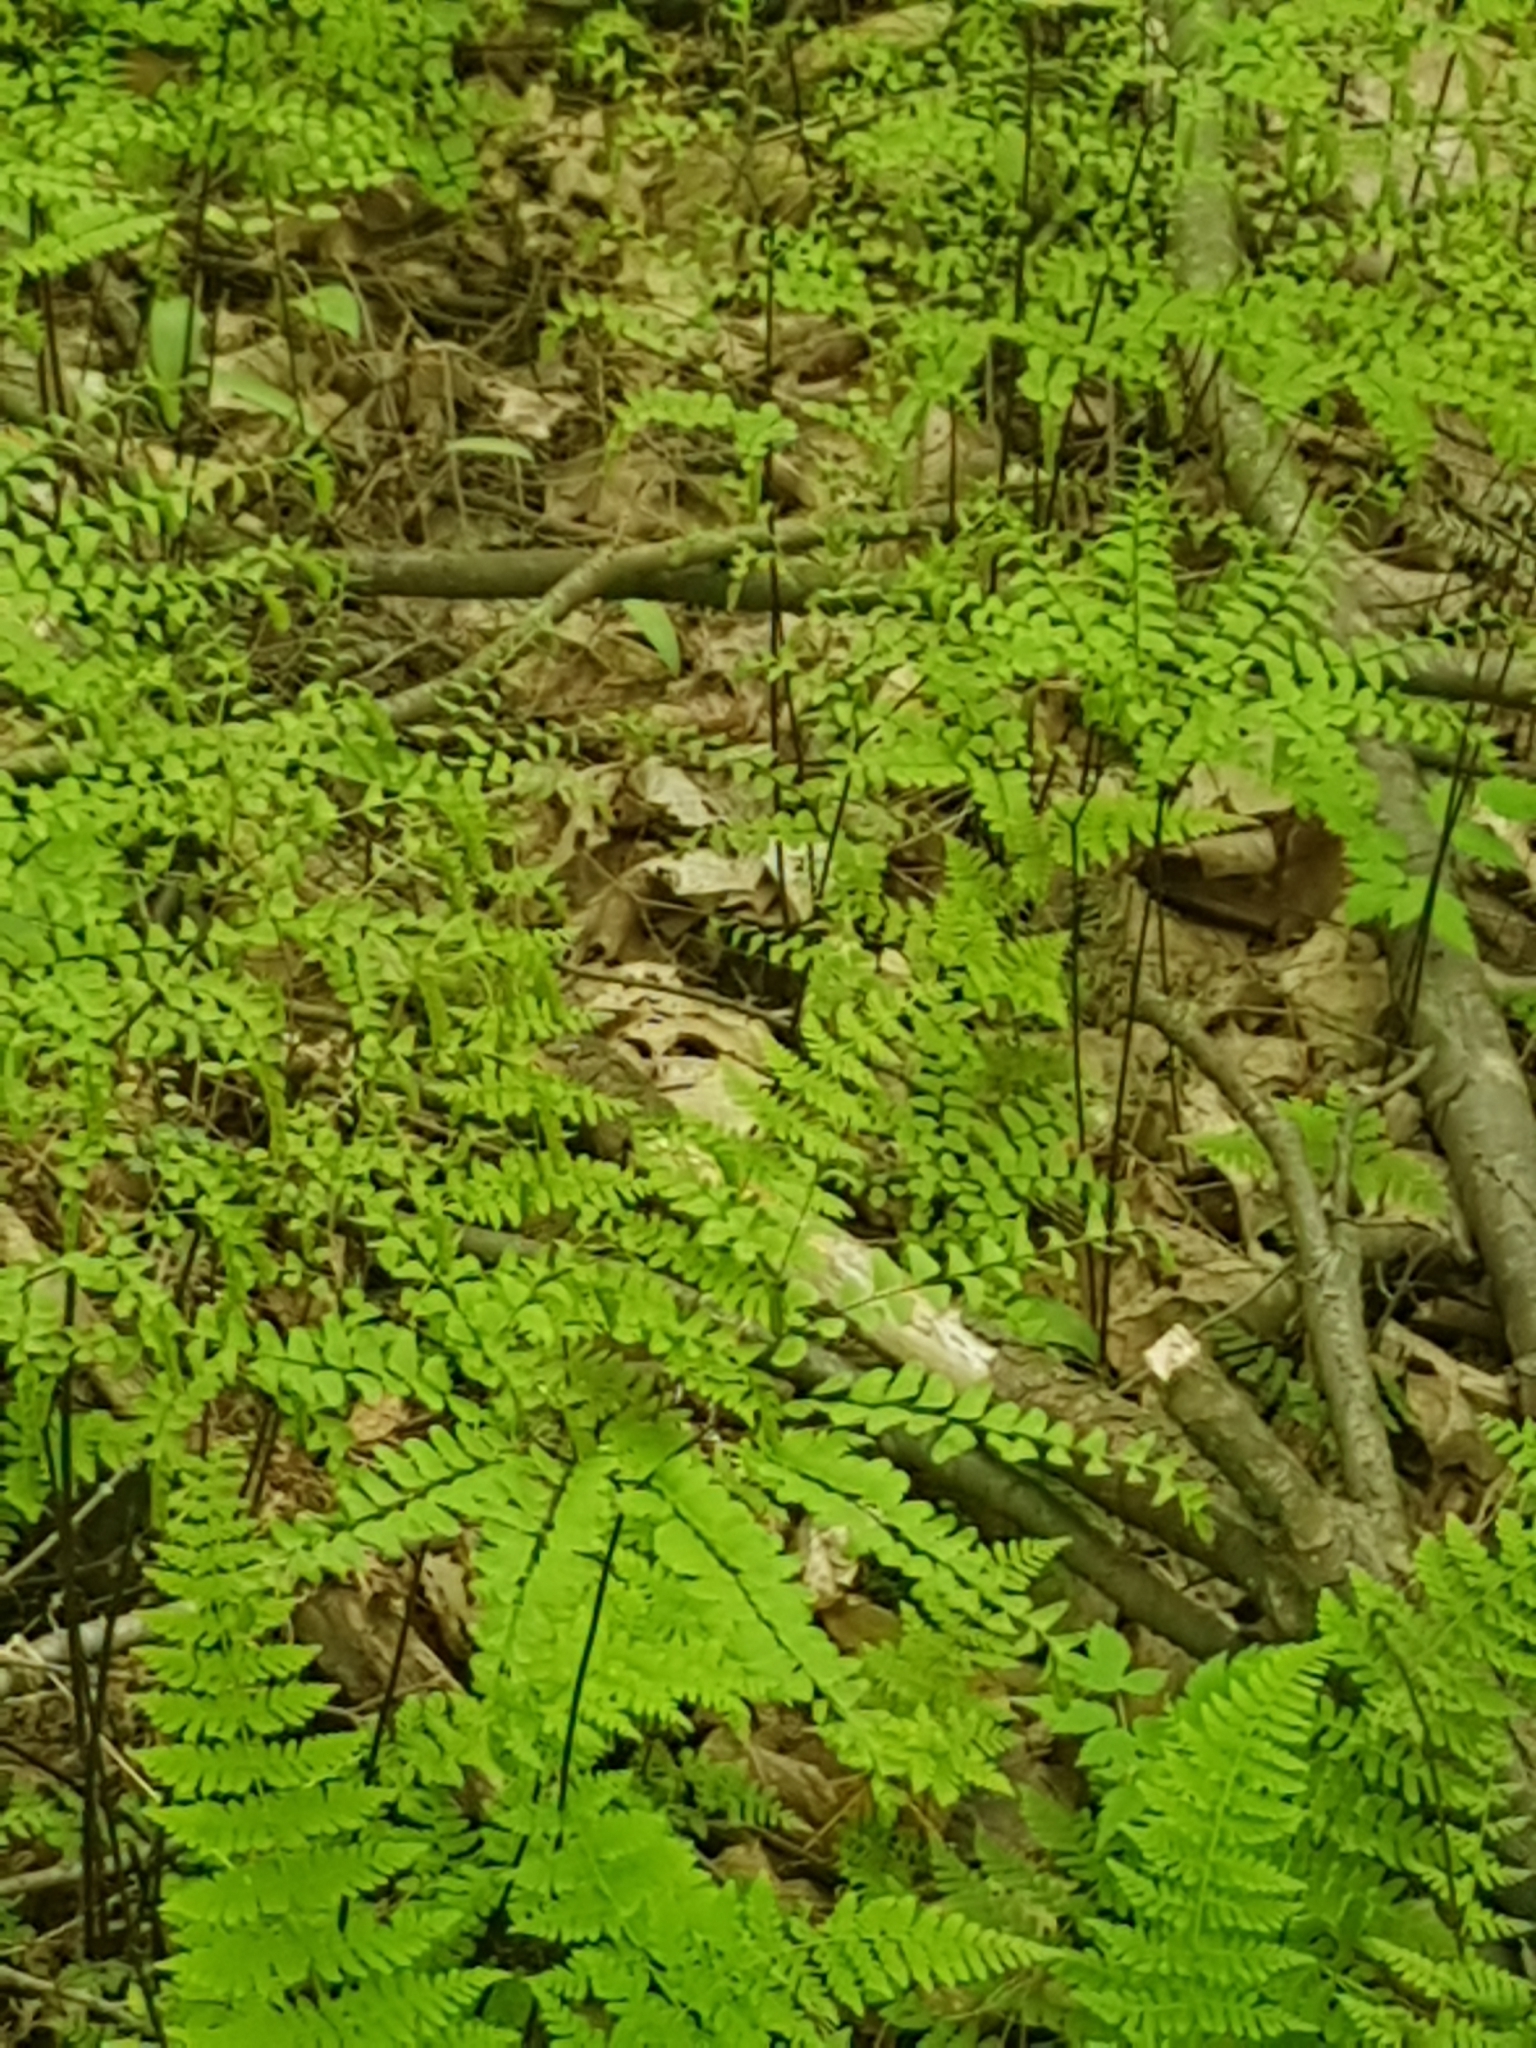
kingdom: Plantae
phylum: Tracheophyta
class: Polypodiopsida
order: Polypodiales
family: Pteridaceae
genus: Adiantum
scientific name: Adiantum pedatum
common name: Five-finger fern
